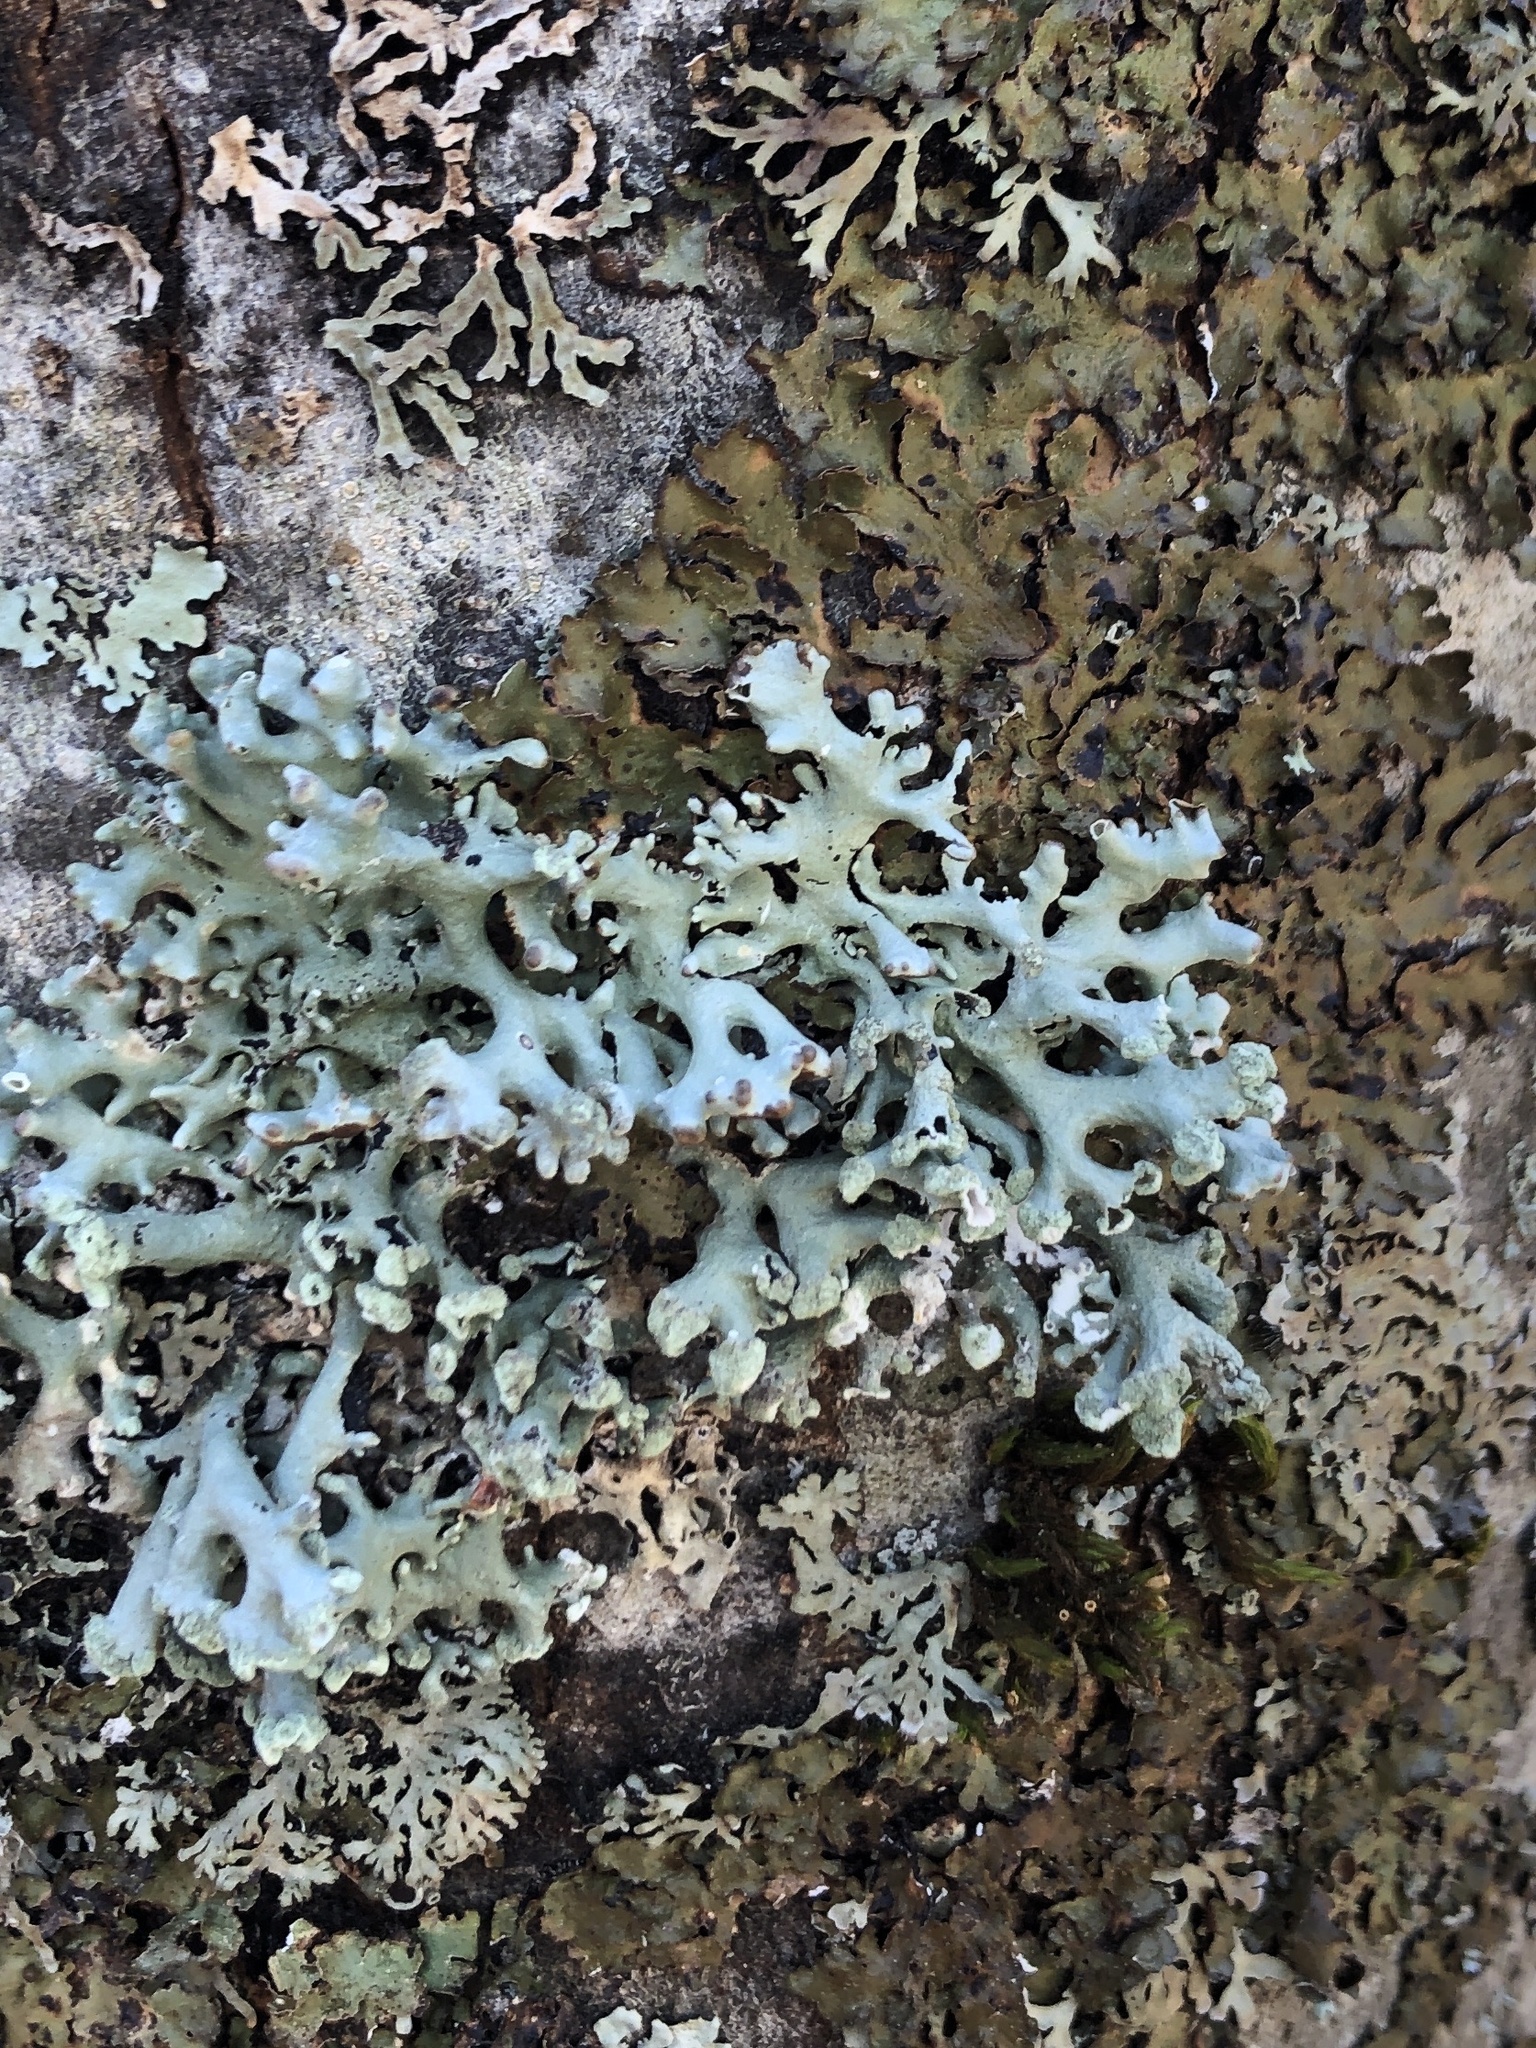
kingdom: Fungi
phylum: Ascomycota
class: Lecanoromycetes
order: Lecanorales
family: Parmeliaceae
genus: Hypogymnia
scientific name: Hypogymnia tubulosa
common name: Powder-headed tube lichen
